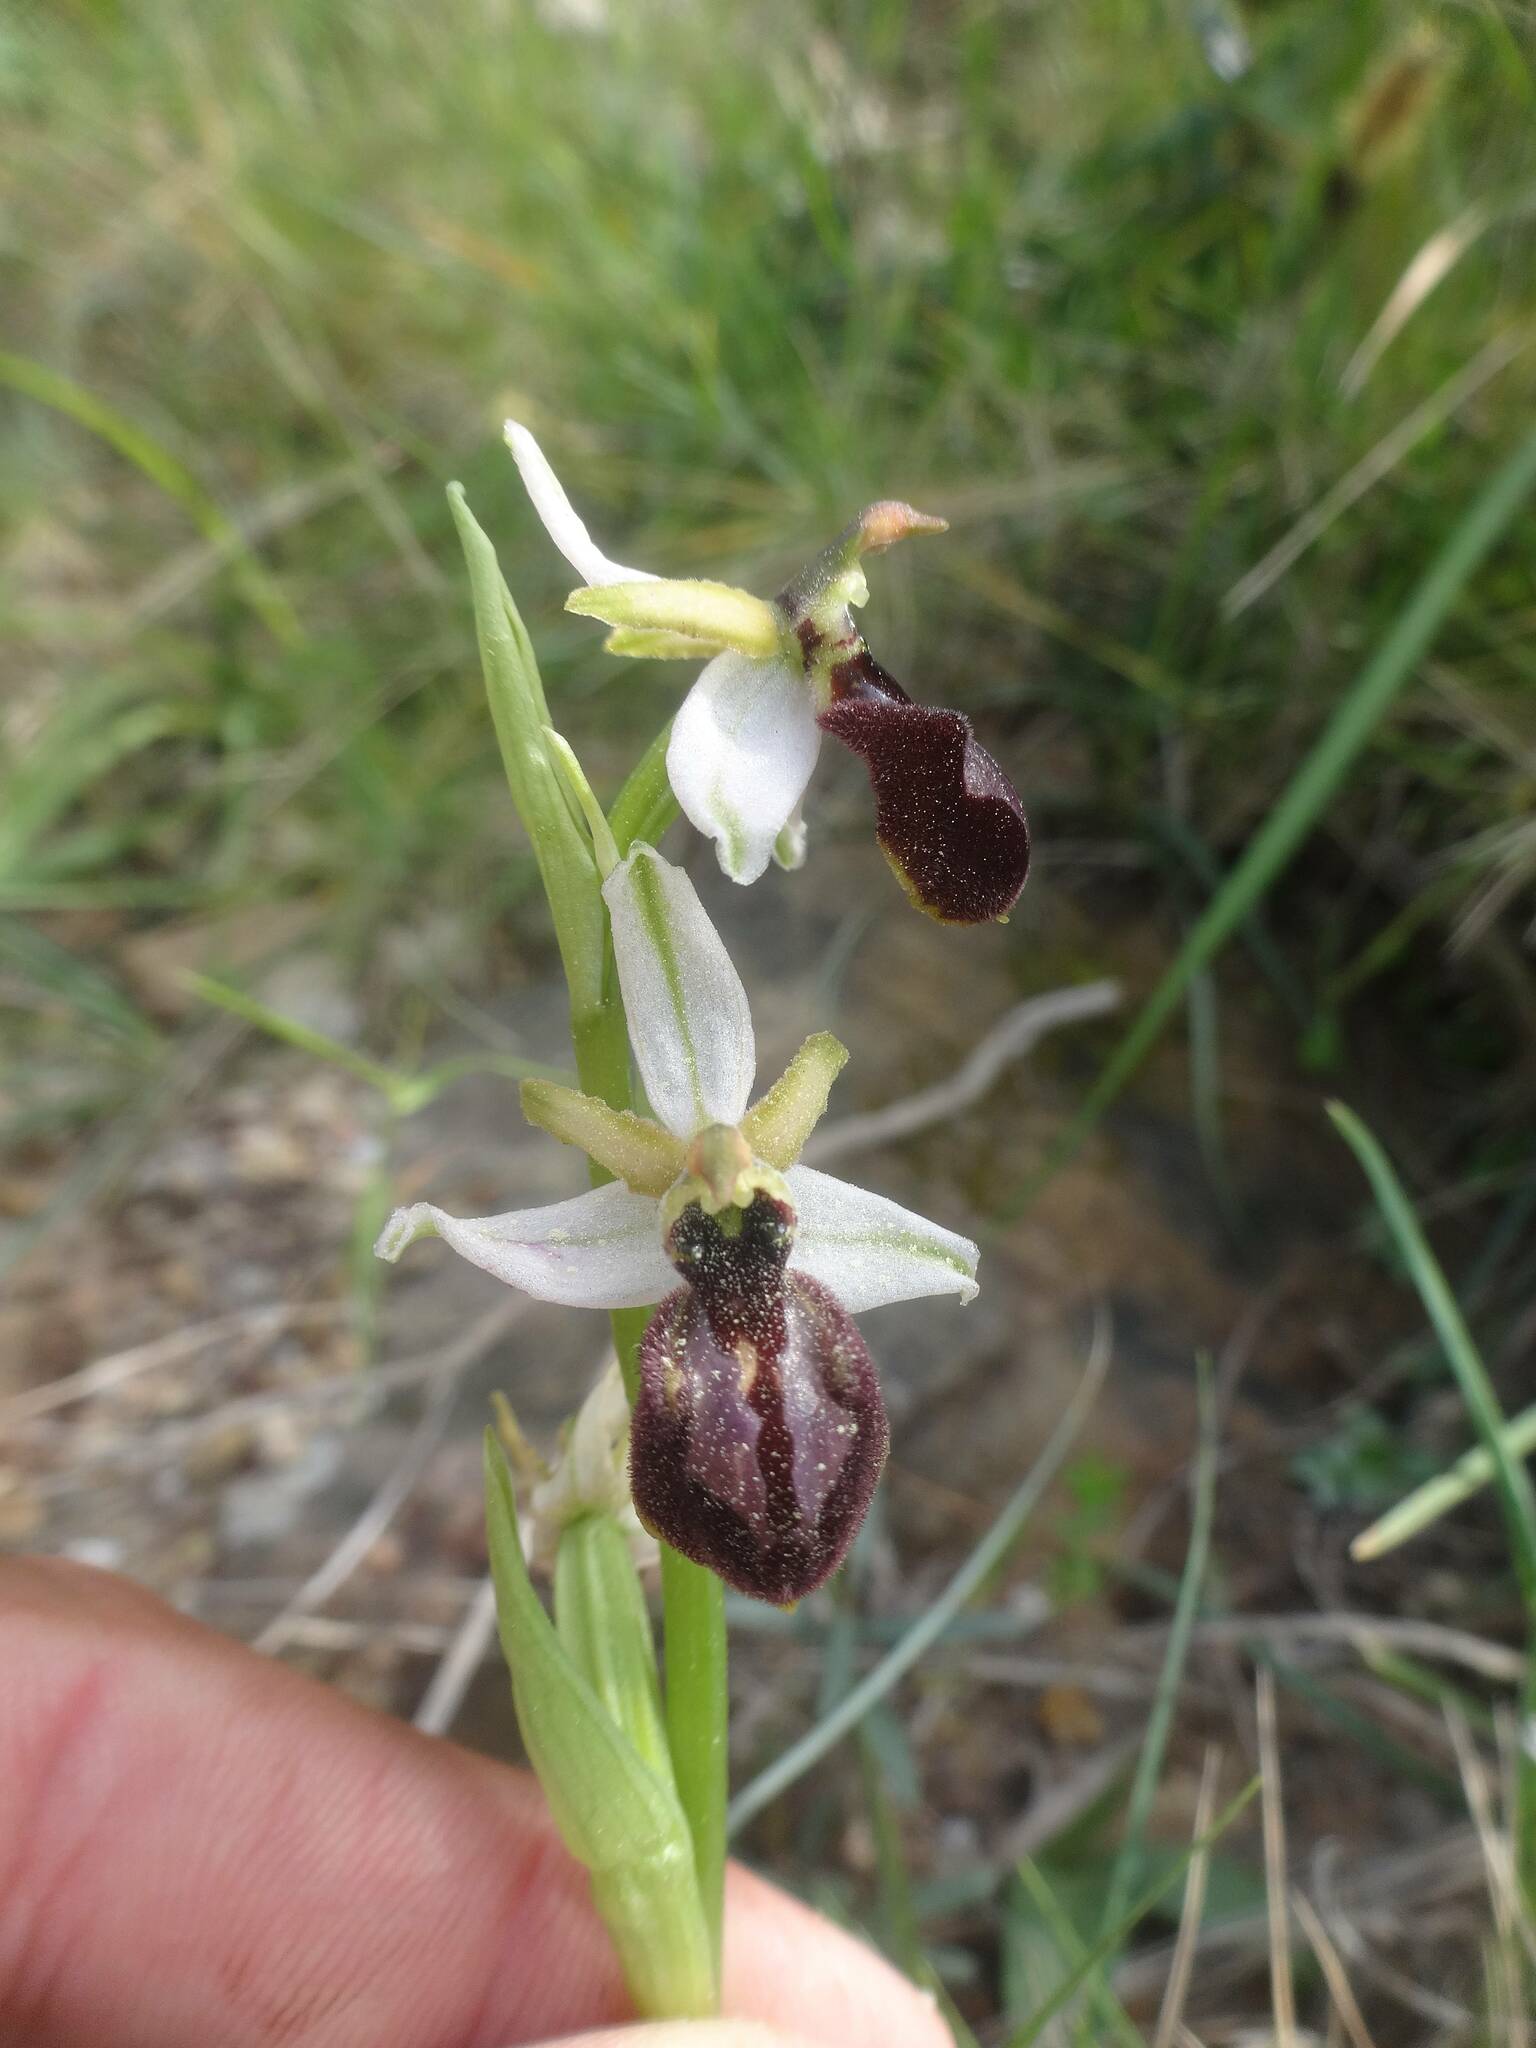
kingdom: Plantae
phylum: Tracheophyta
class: Liliopsida
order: Asparagales
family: Orchidaceae
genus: Ophrys
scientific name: Ophrys sphegodes
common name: Early spider-orchid
